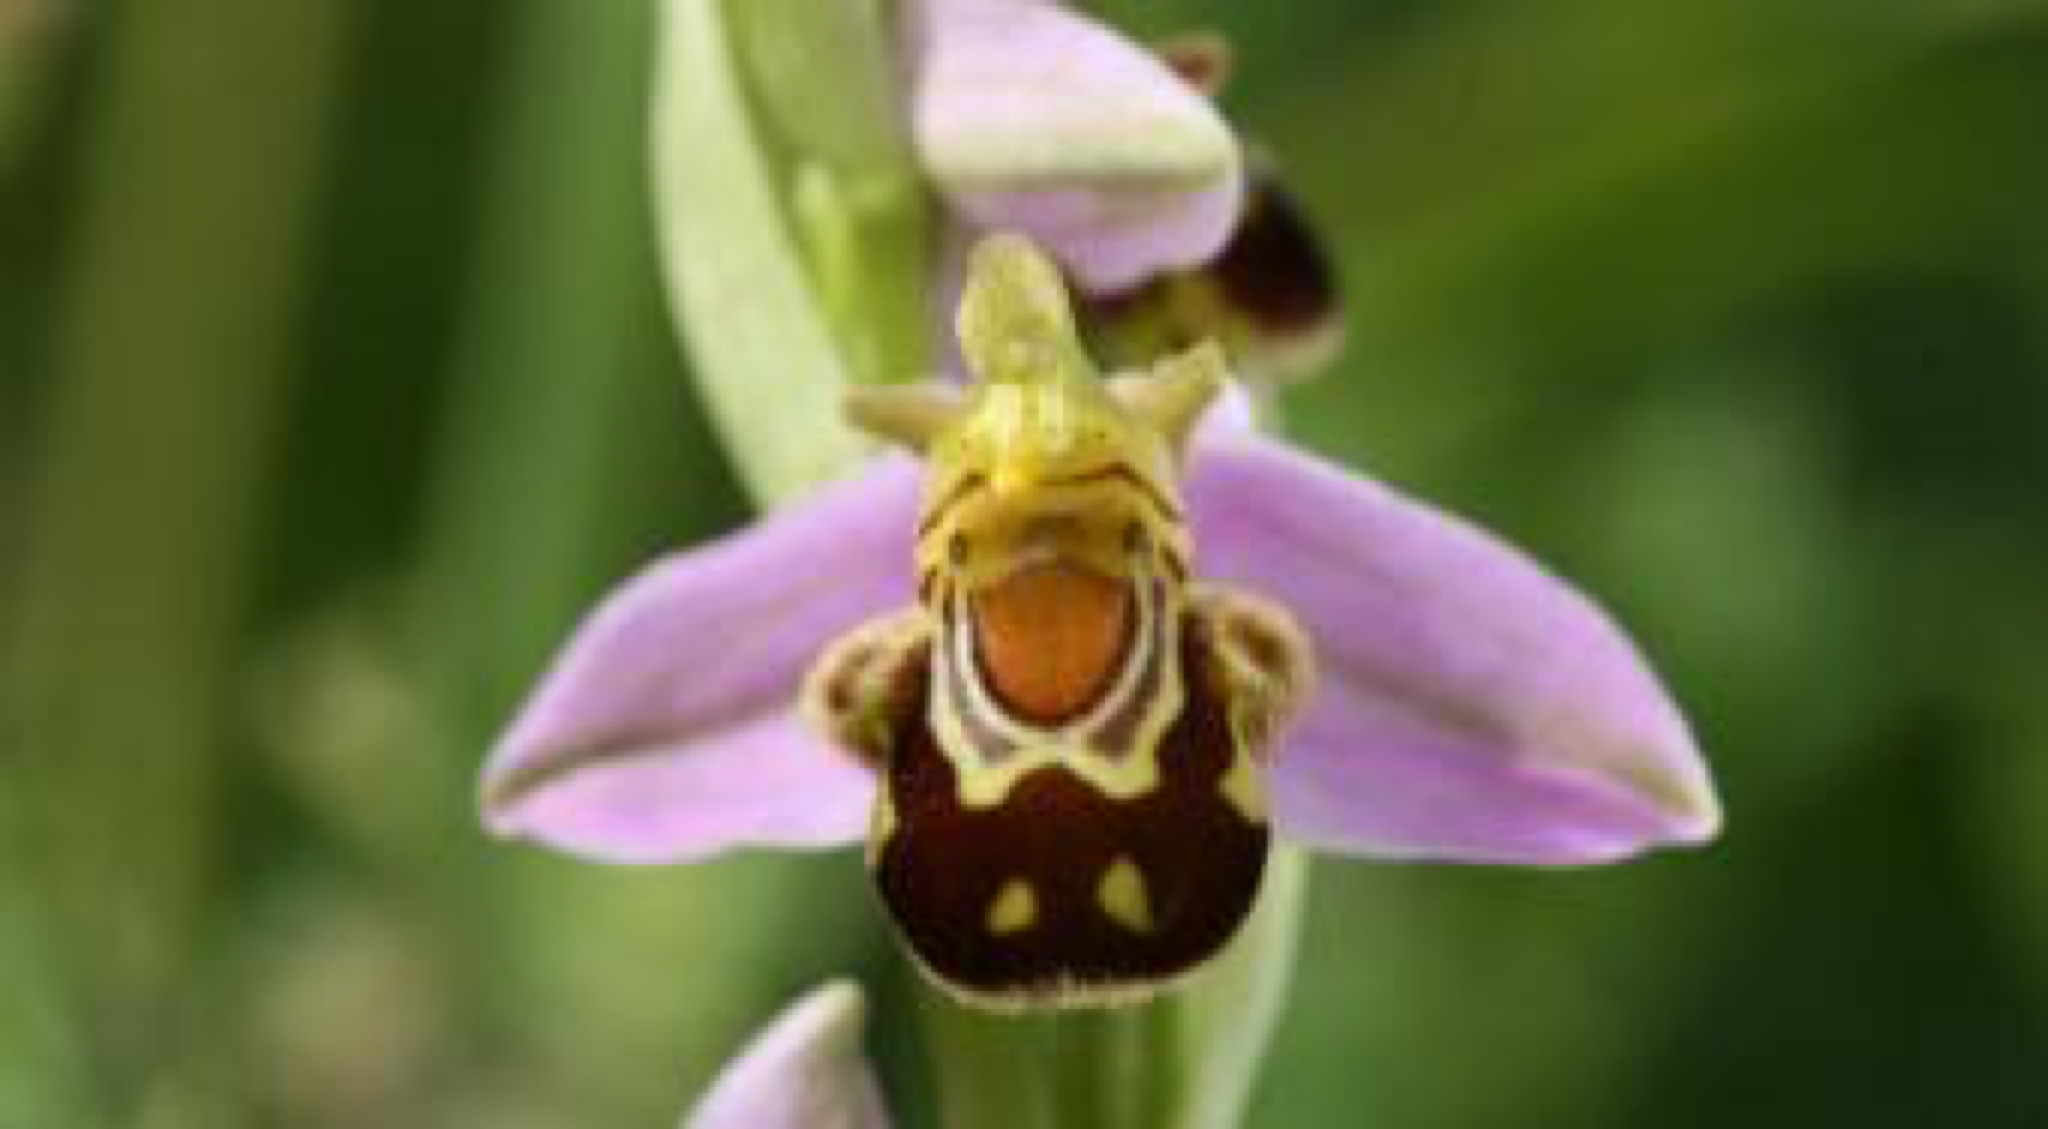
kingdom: Plantae
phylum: Tracheophyta
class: Liliopsida
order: Asparagales
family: Orchidaceae
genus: Ophrys
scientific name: Ophrys apifera
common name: Bee orchid
